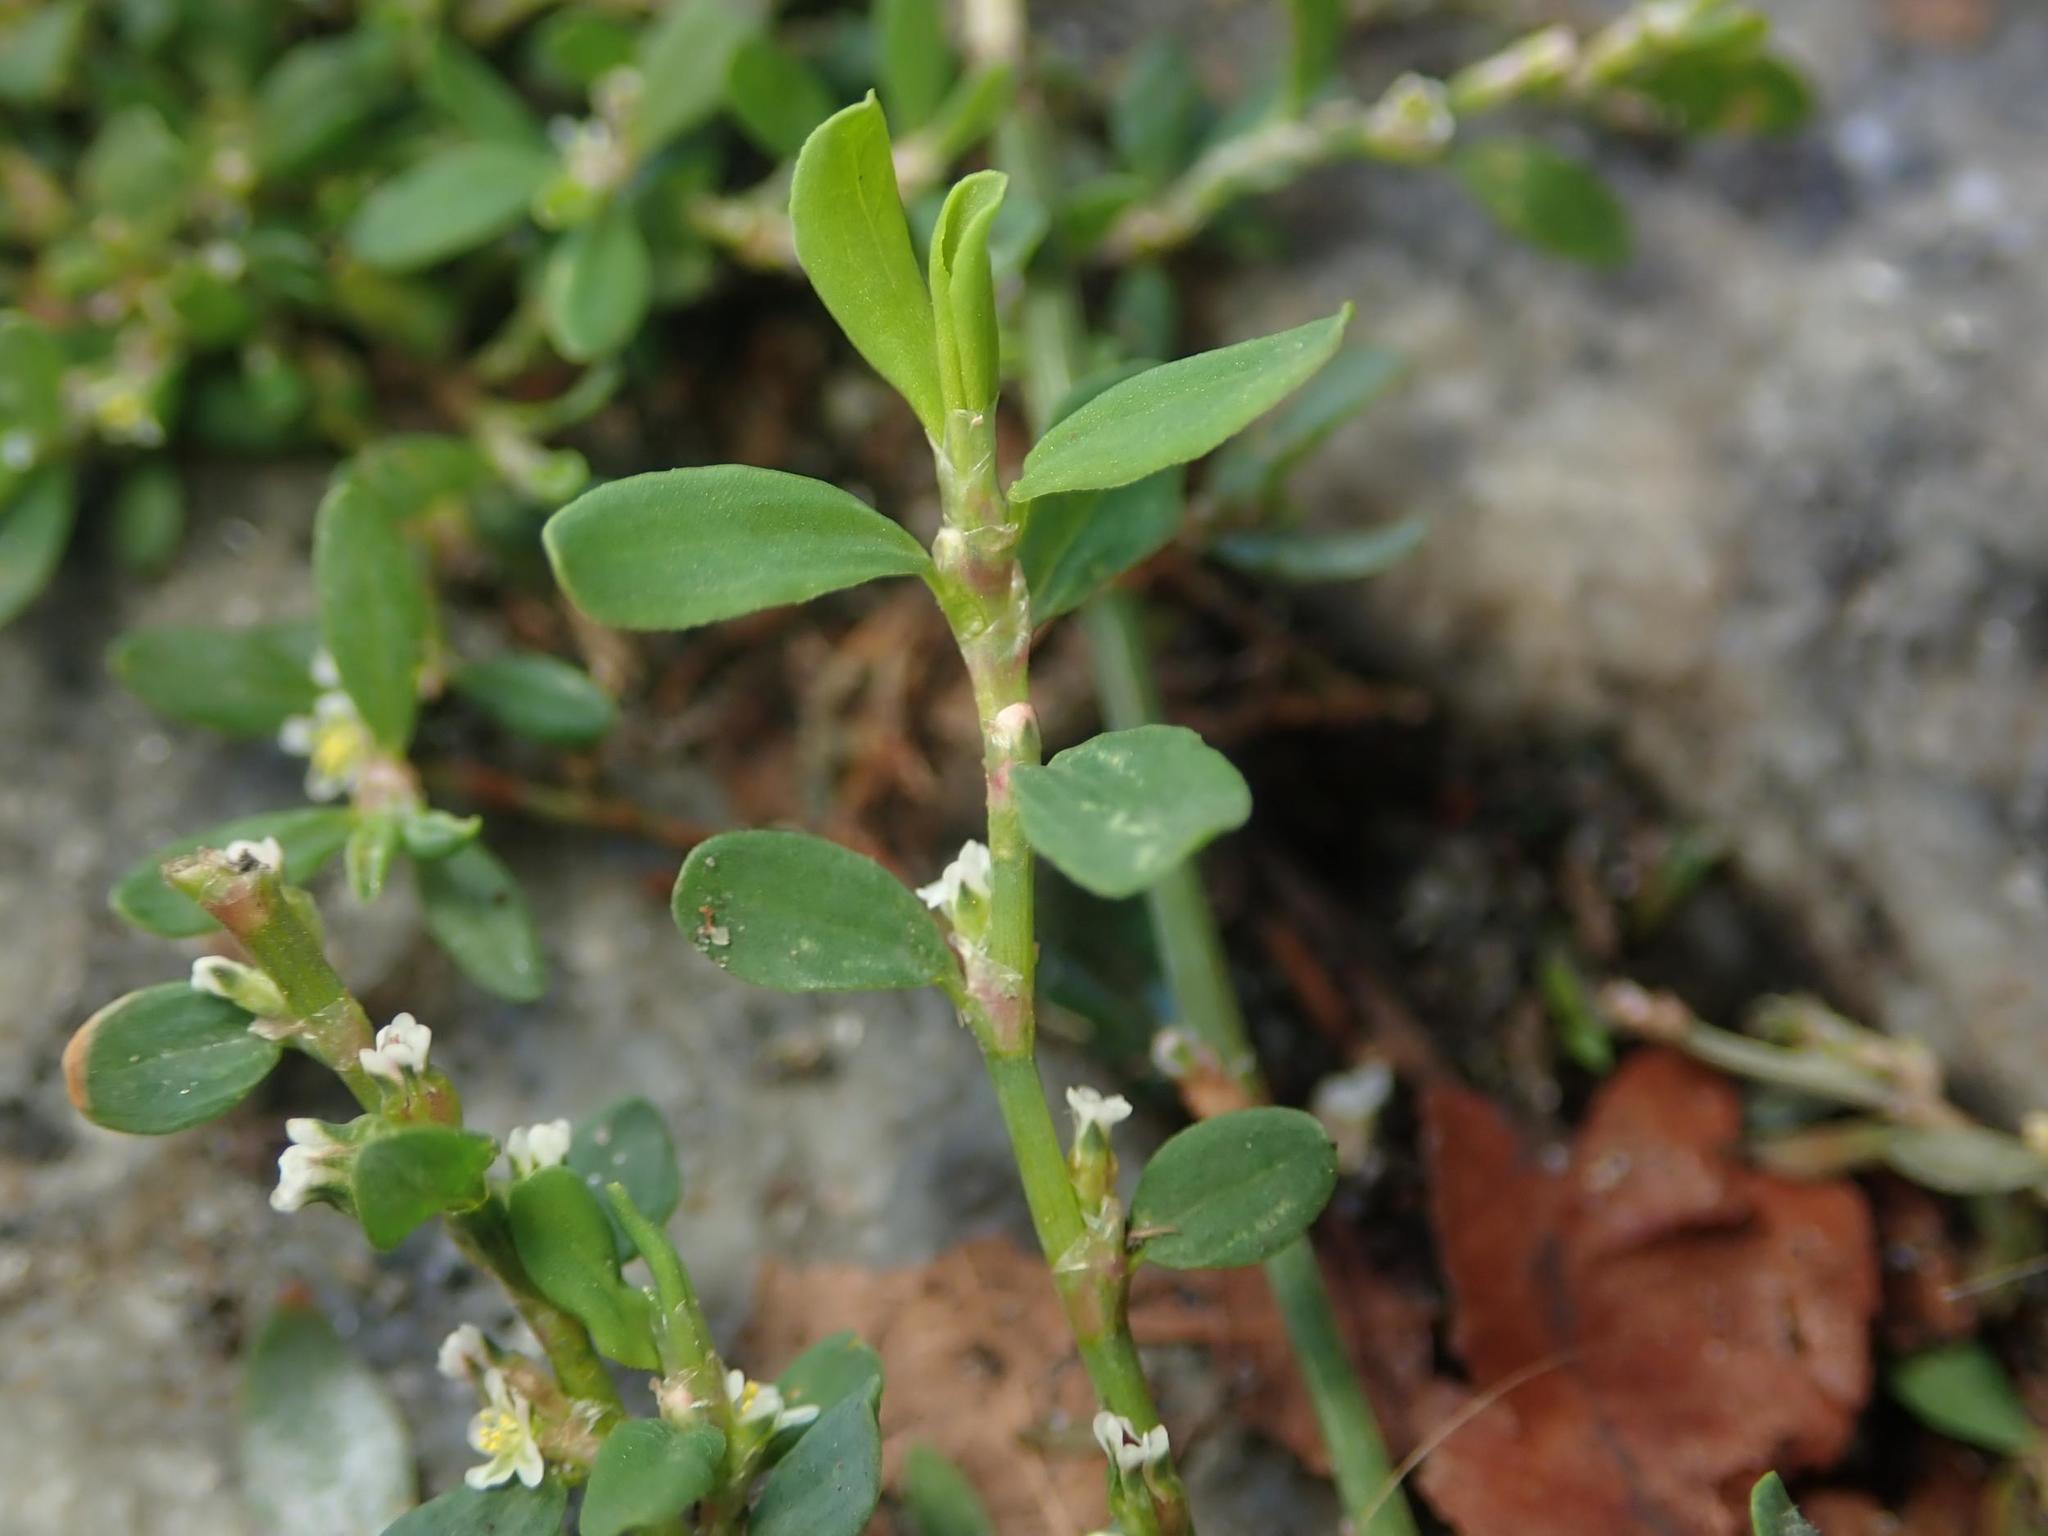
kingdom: Plantae
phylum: Tracheophyta
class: Magnoliopsida
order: Caryophyllales
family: Polygonaceae
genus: Polygonum
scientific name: Polygonum aviculare
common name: Prostrate knotweed
